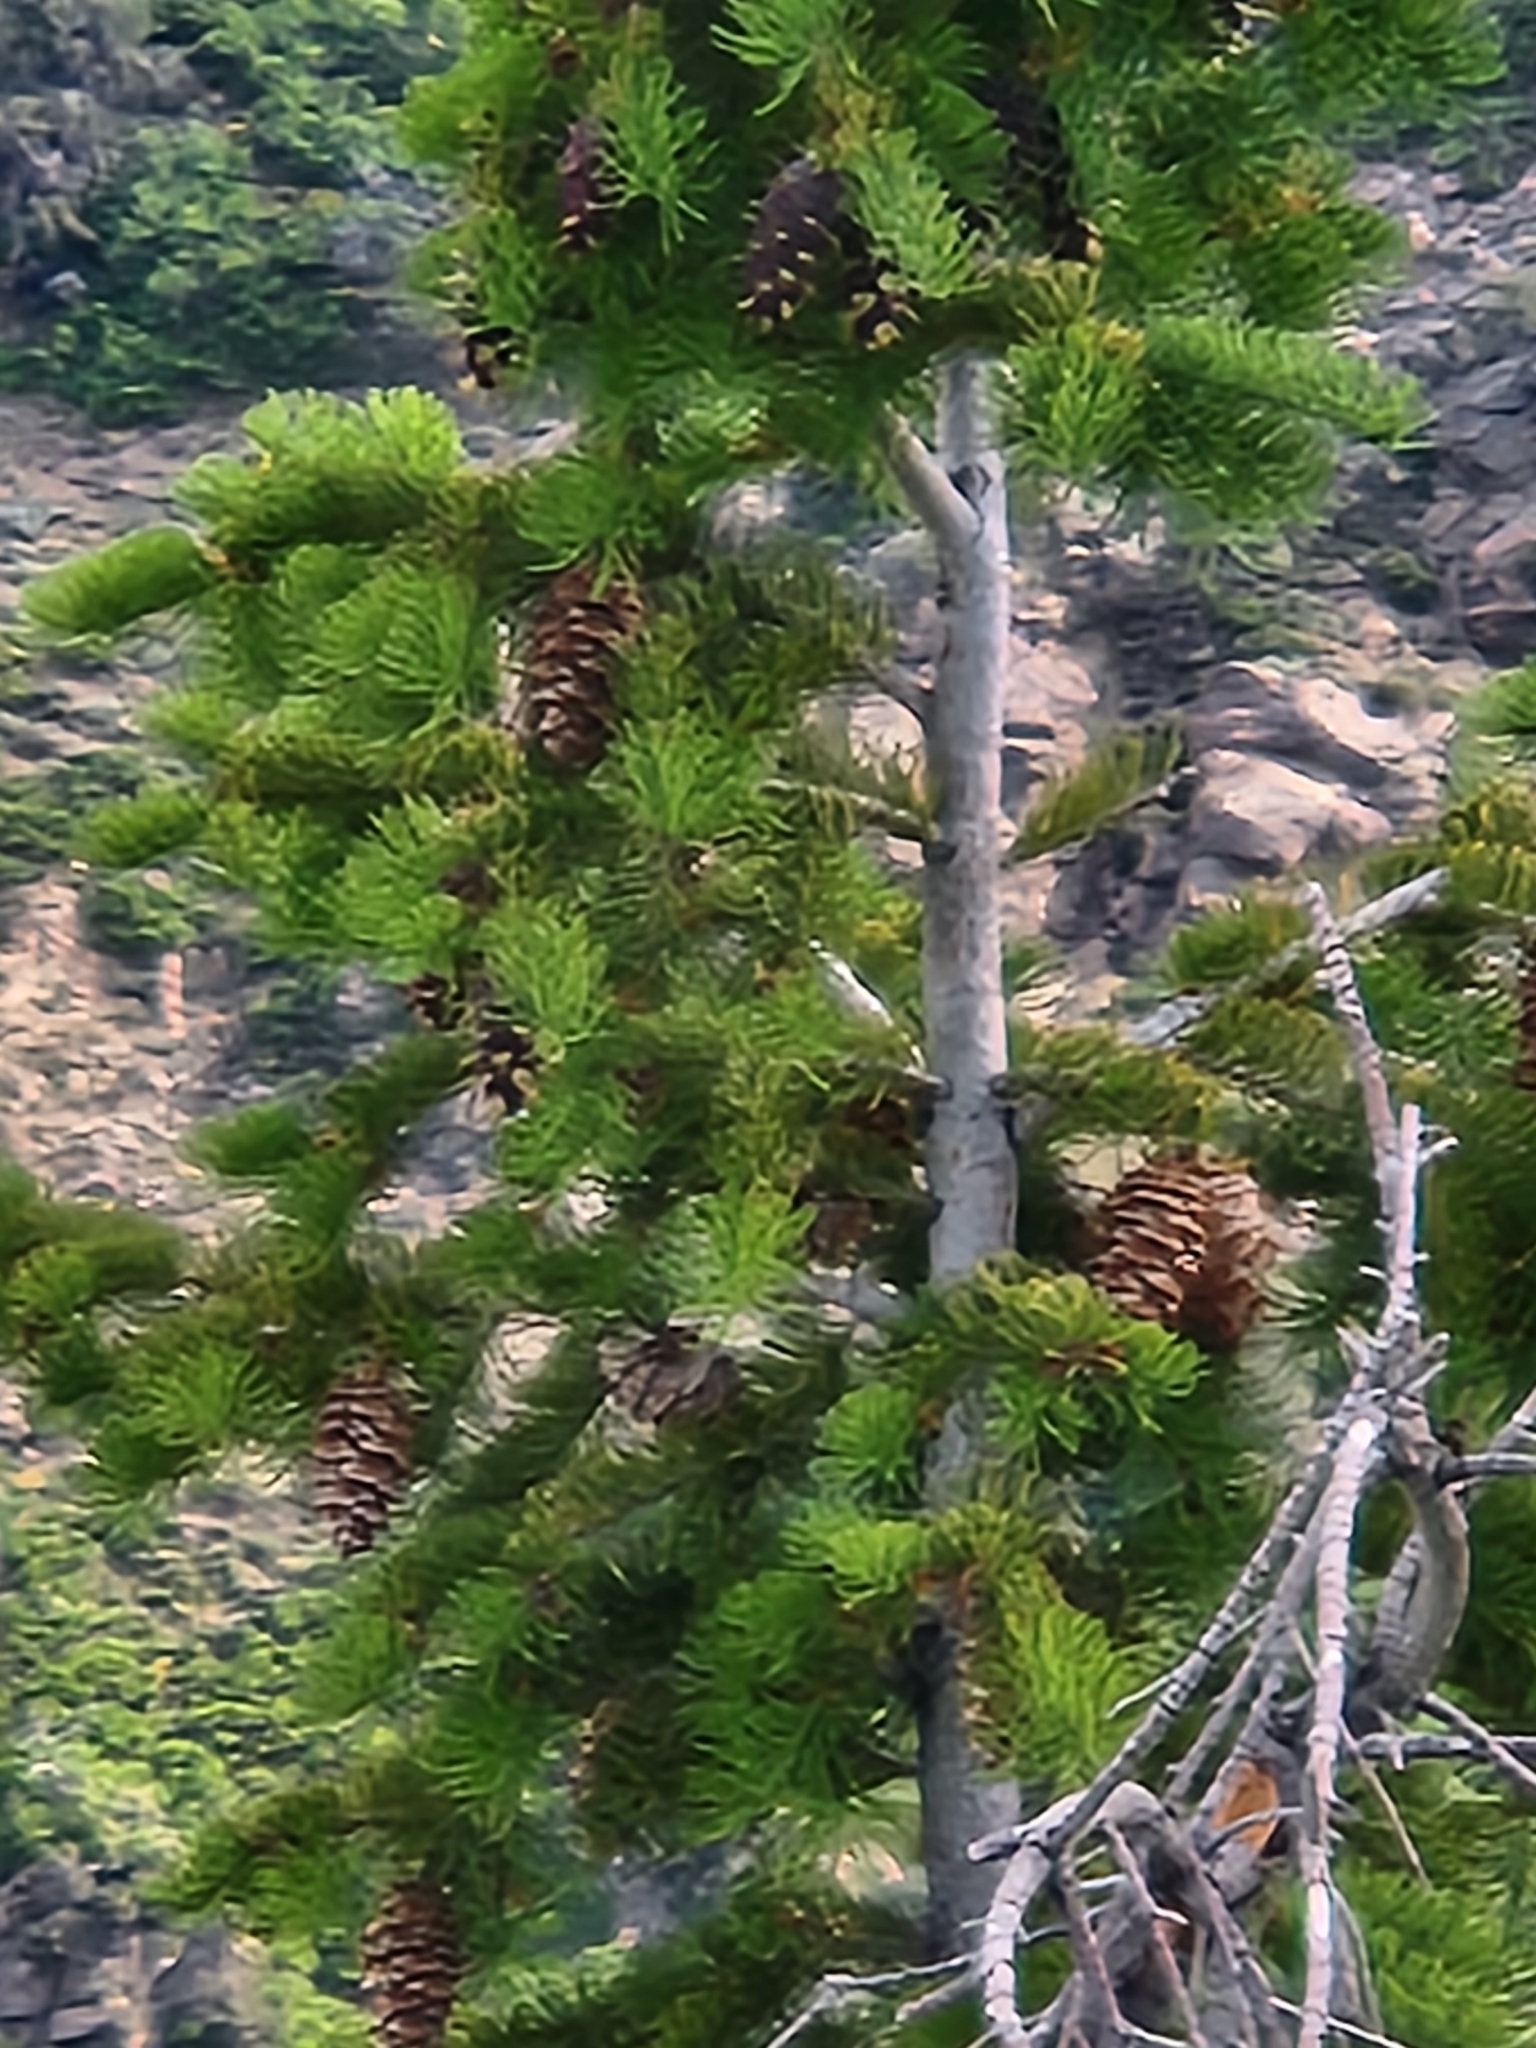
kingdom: Plantae
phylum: Tracheophyta
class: Pinopsida
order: Pinales
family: Pinaceae
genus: Pseudotsuga
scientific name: Pseudotsuga menziesii
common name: Douglas fir
